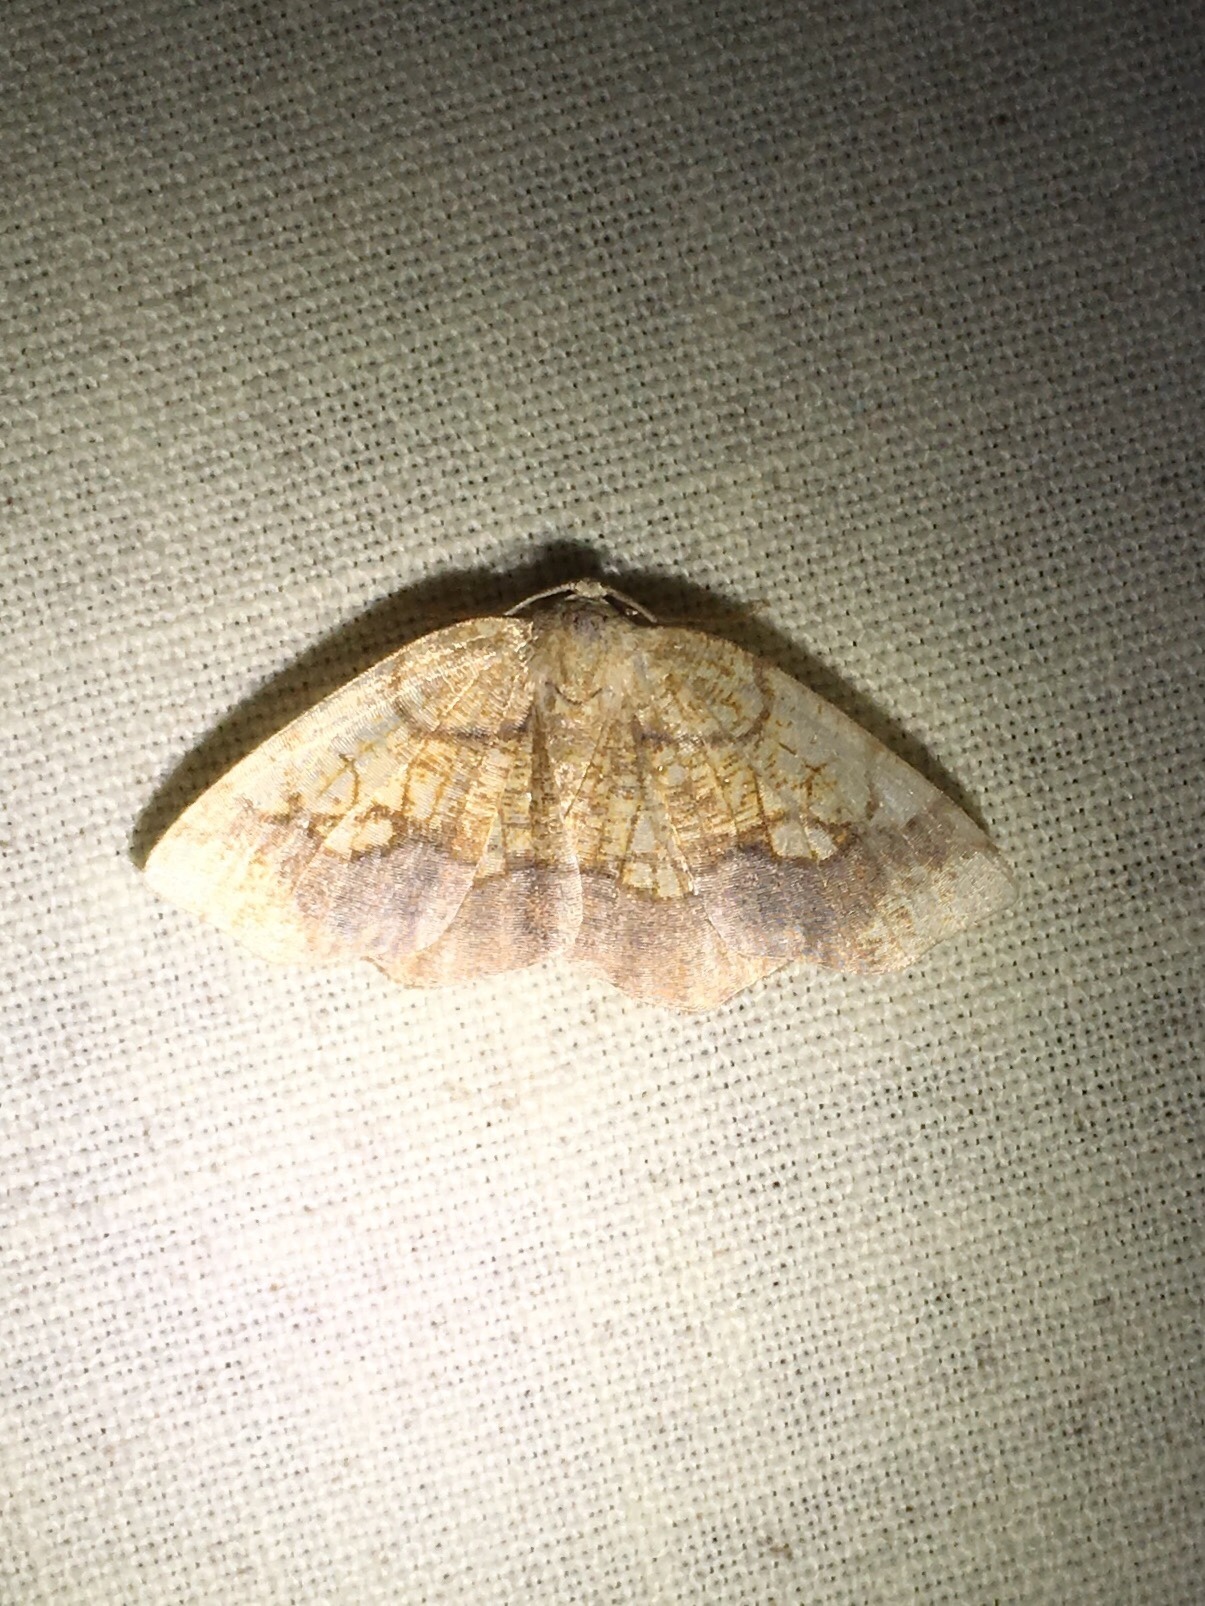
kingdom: Animalia
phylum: Arthropoda
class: Insecta
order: Lepidoptera
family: Geometridae
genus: Nematocampa
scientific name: Nematocampa resistaria
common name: Horned spanworm moth
